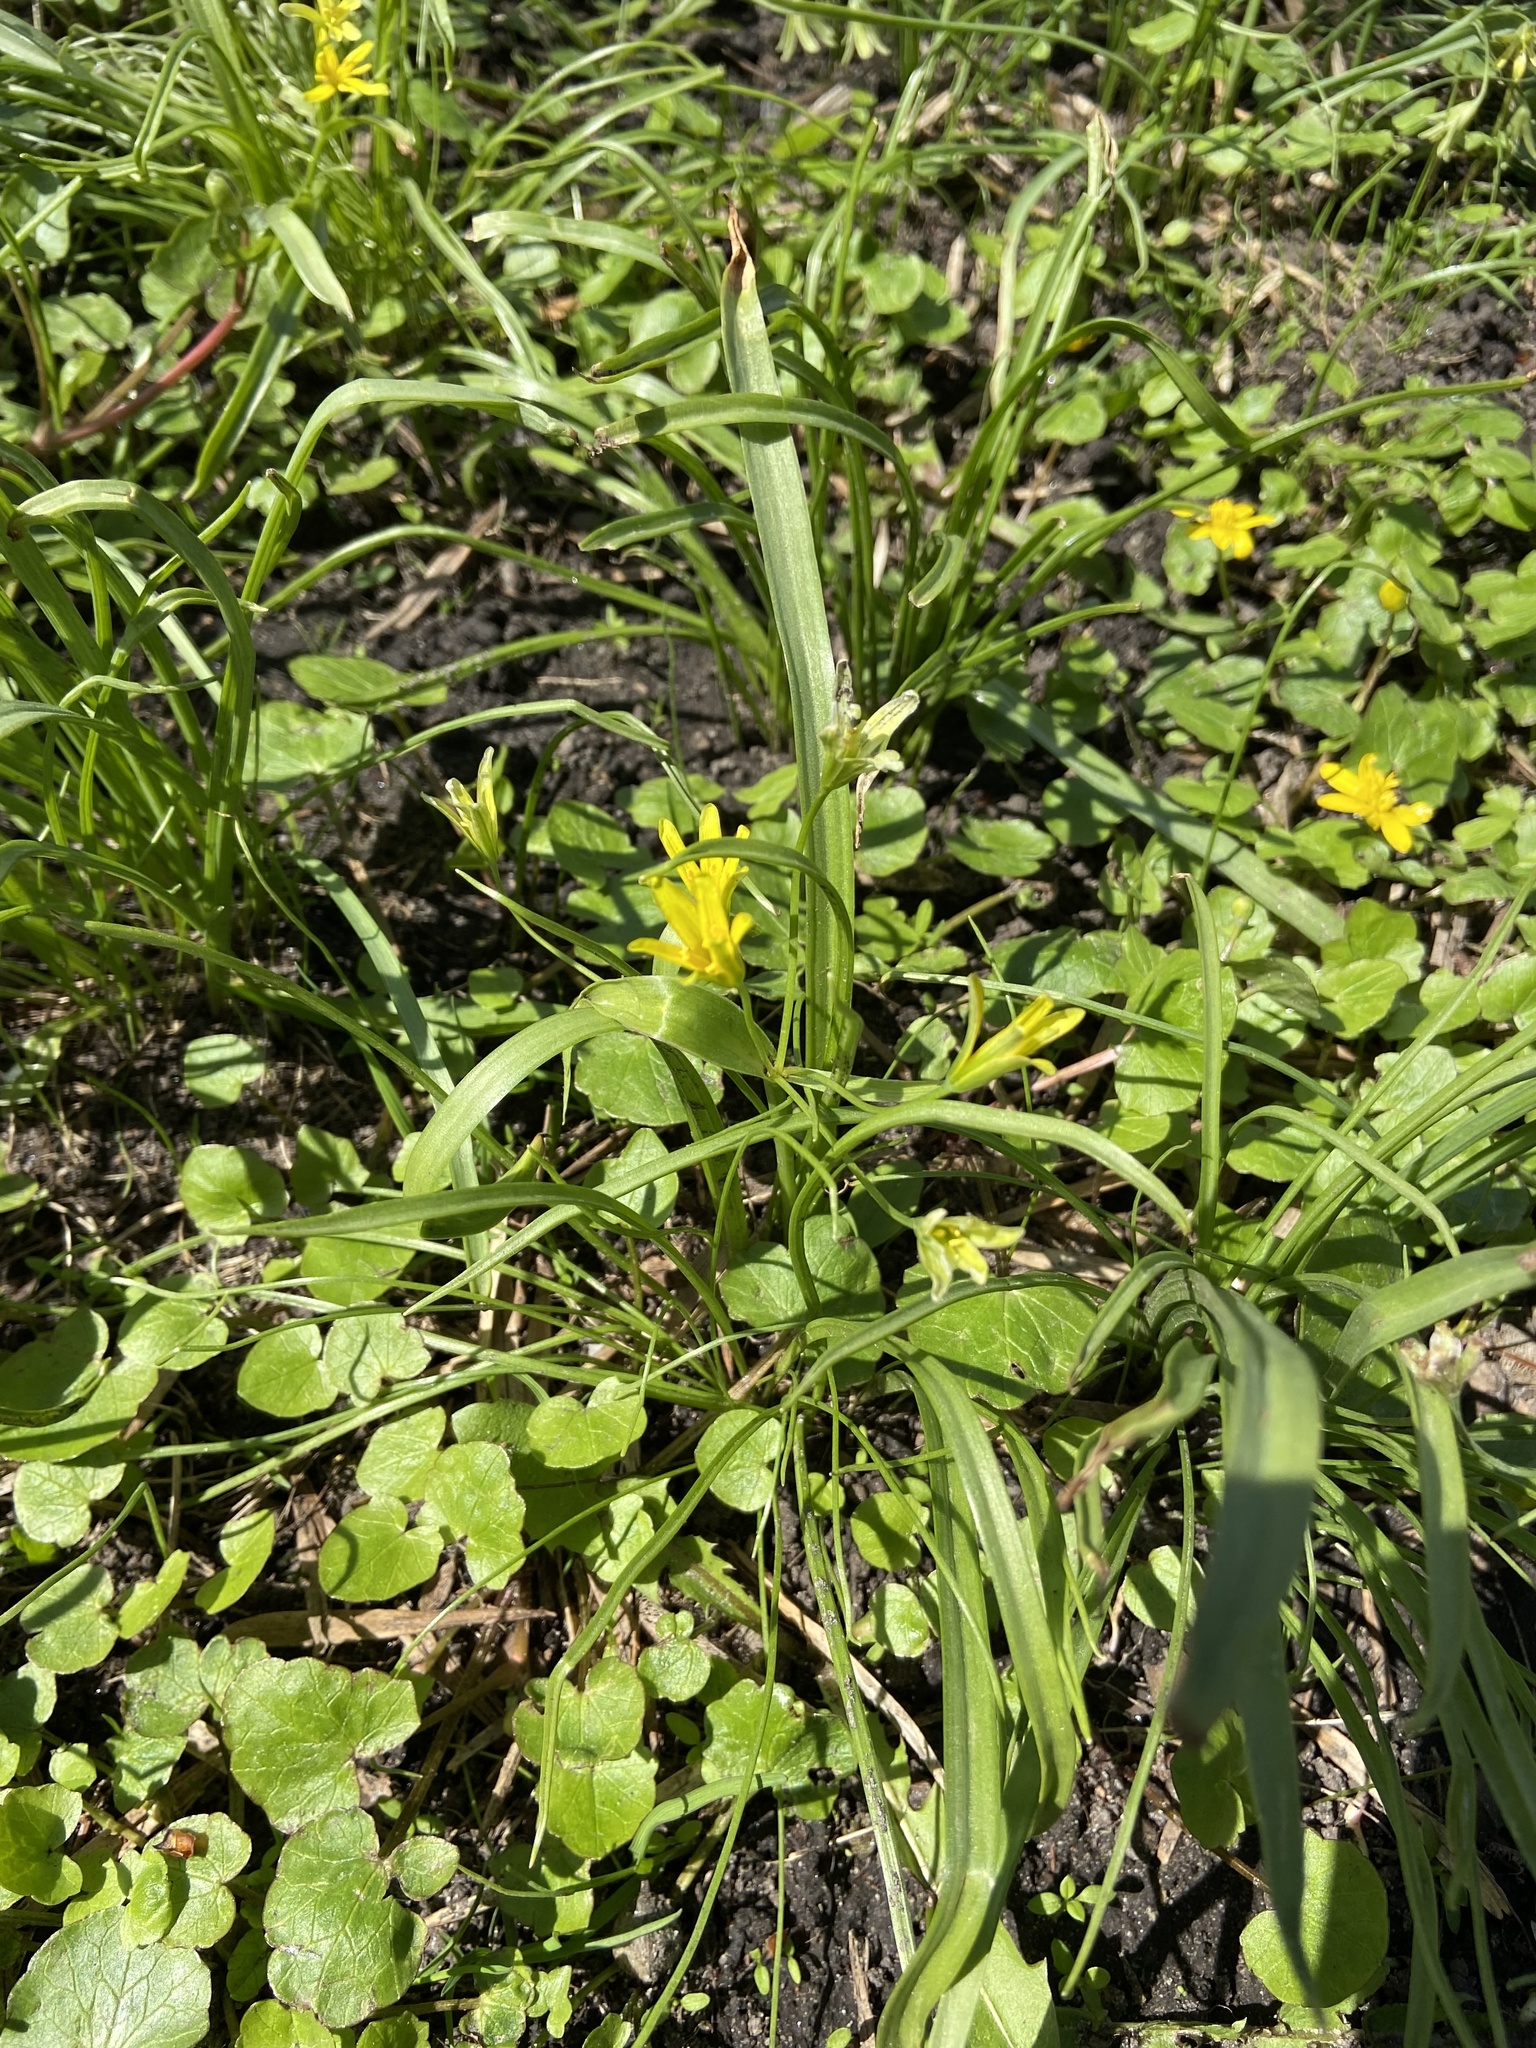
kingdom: Plantae
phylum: Tracheophyta
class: Liliopsida
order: Liliales
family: Liliaceae
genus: Gagea
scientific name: Gagea lutea
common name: Yellow star-of-bethlehem
